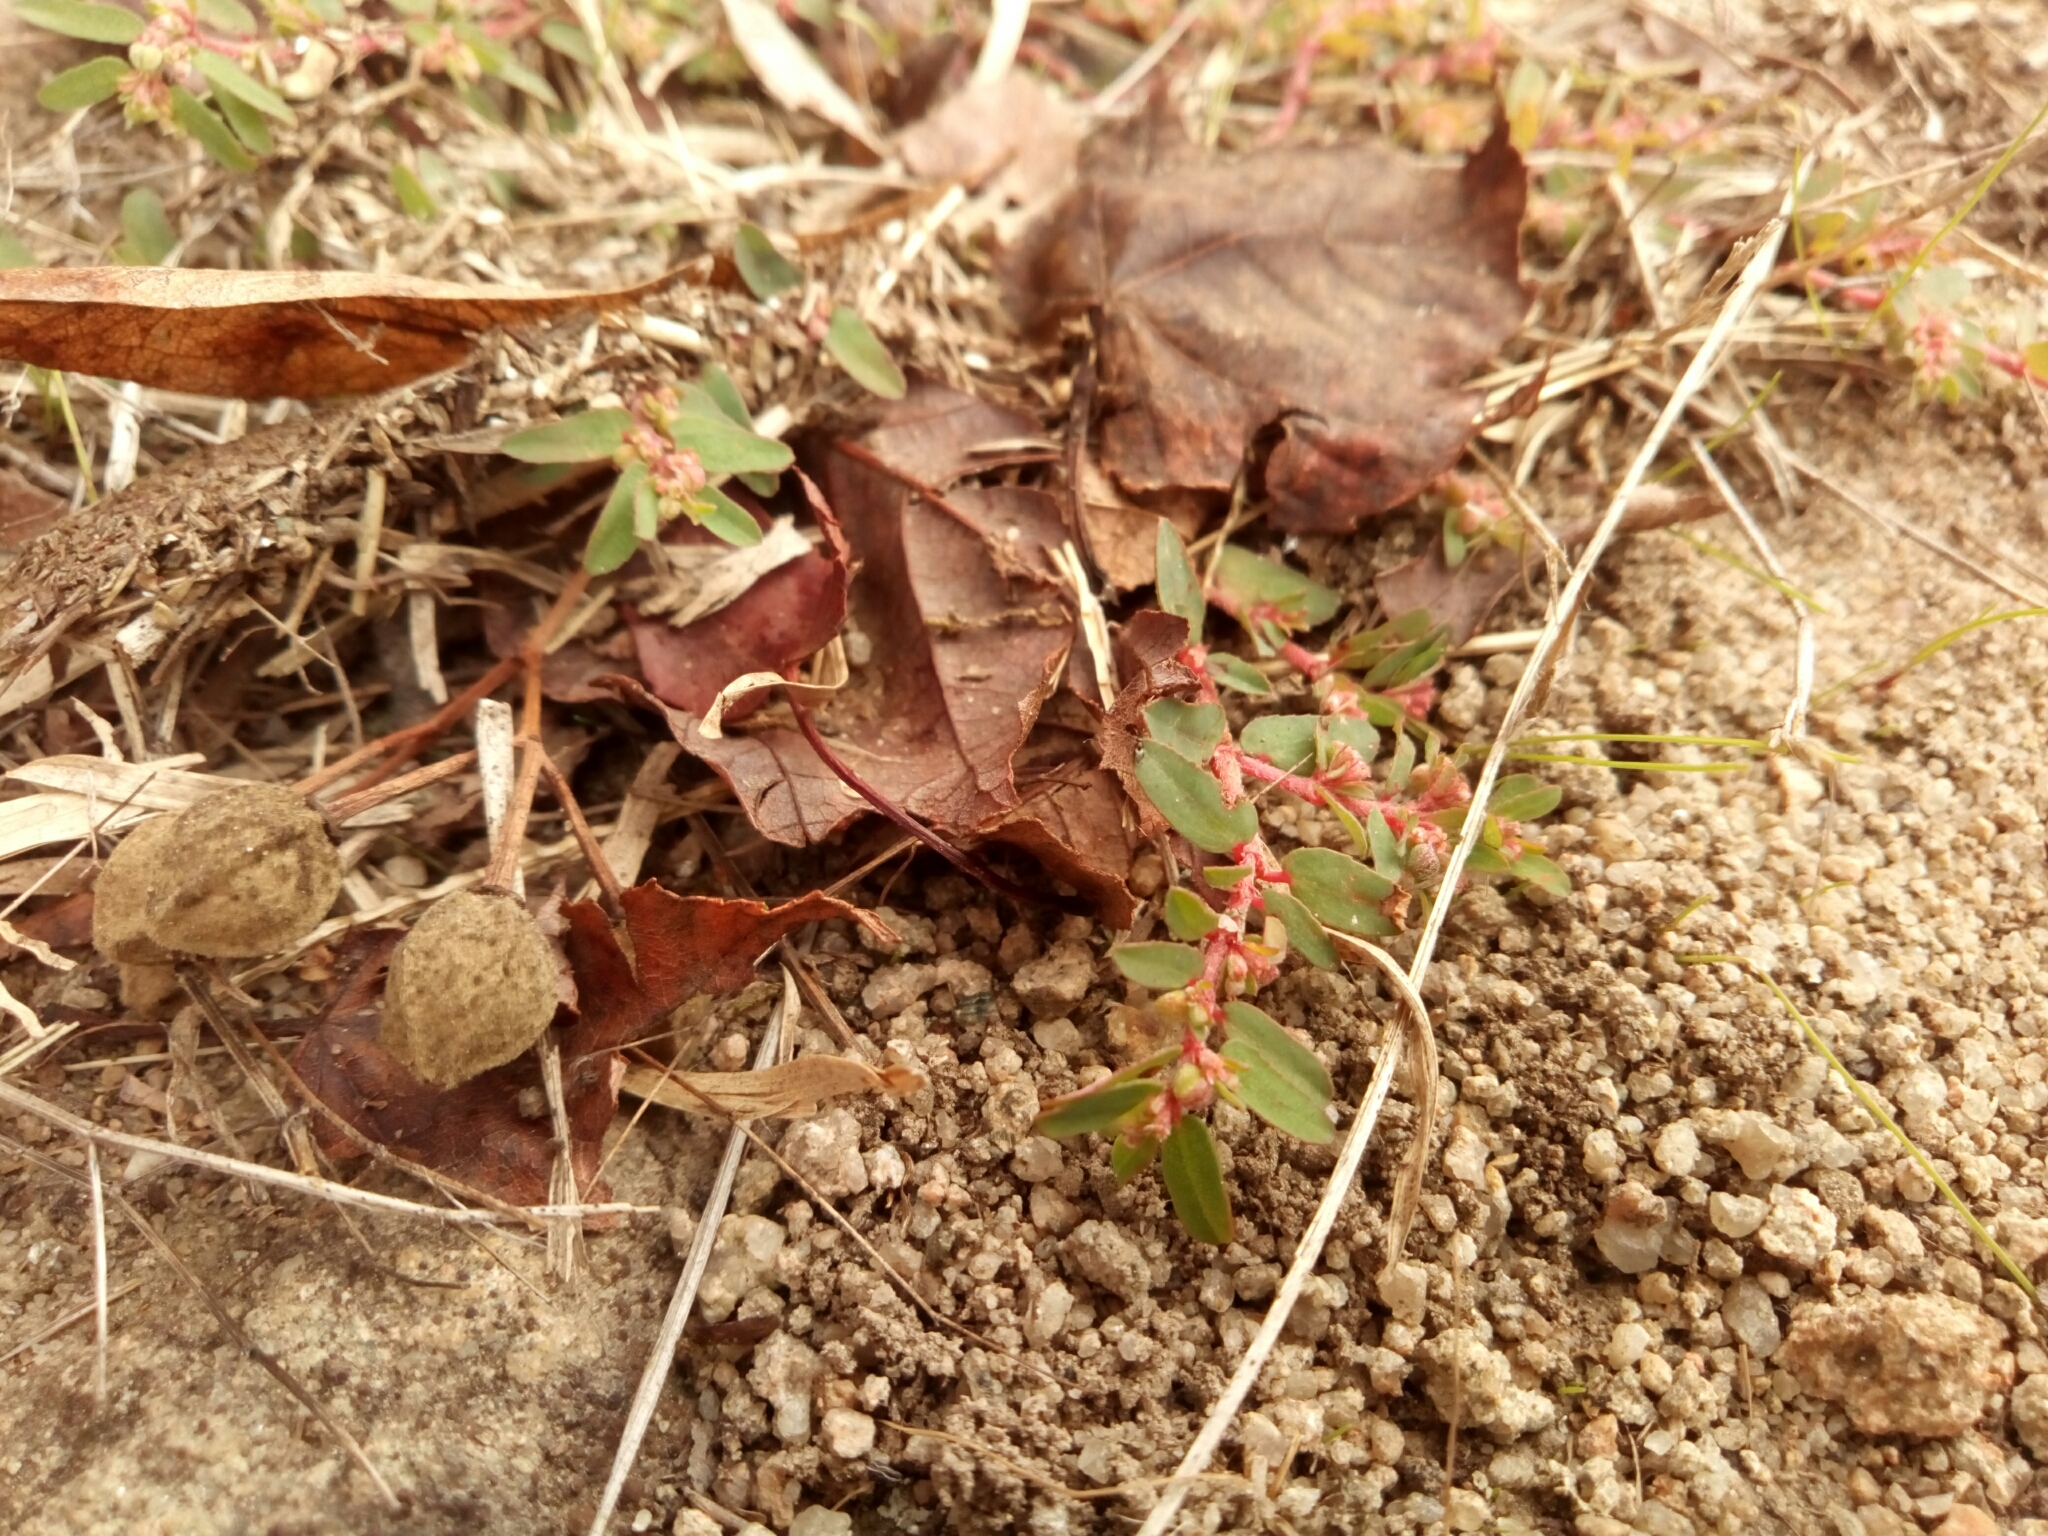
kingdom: Plantae
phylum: Tracheophyta
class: Magnoliopsida
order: Malpighiales
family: Euphorbiaceae
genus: Euphorbia
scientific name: Euphorbia maculata
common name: Spotted spurge
